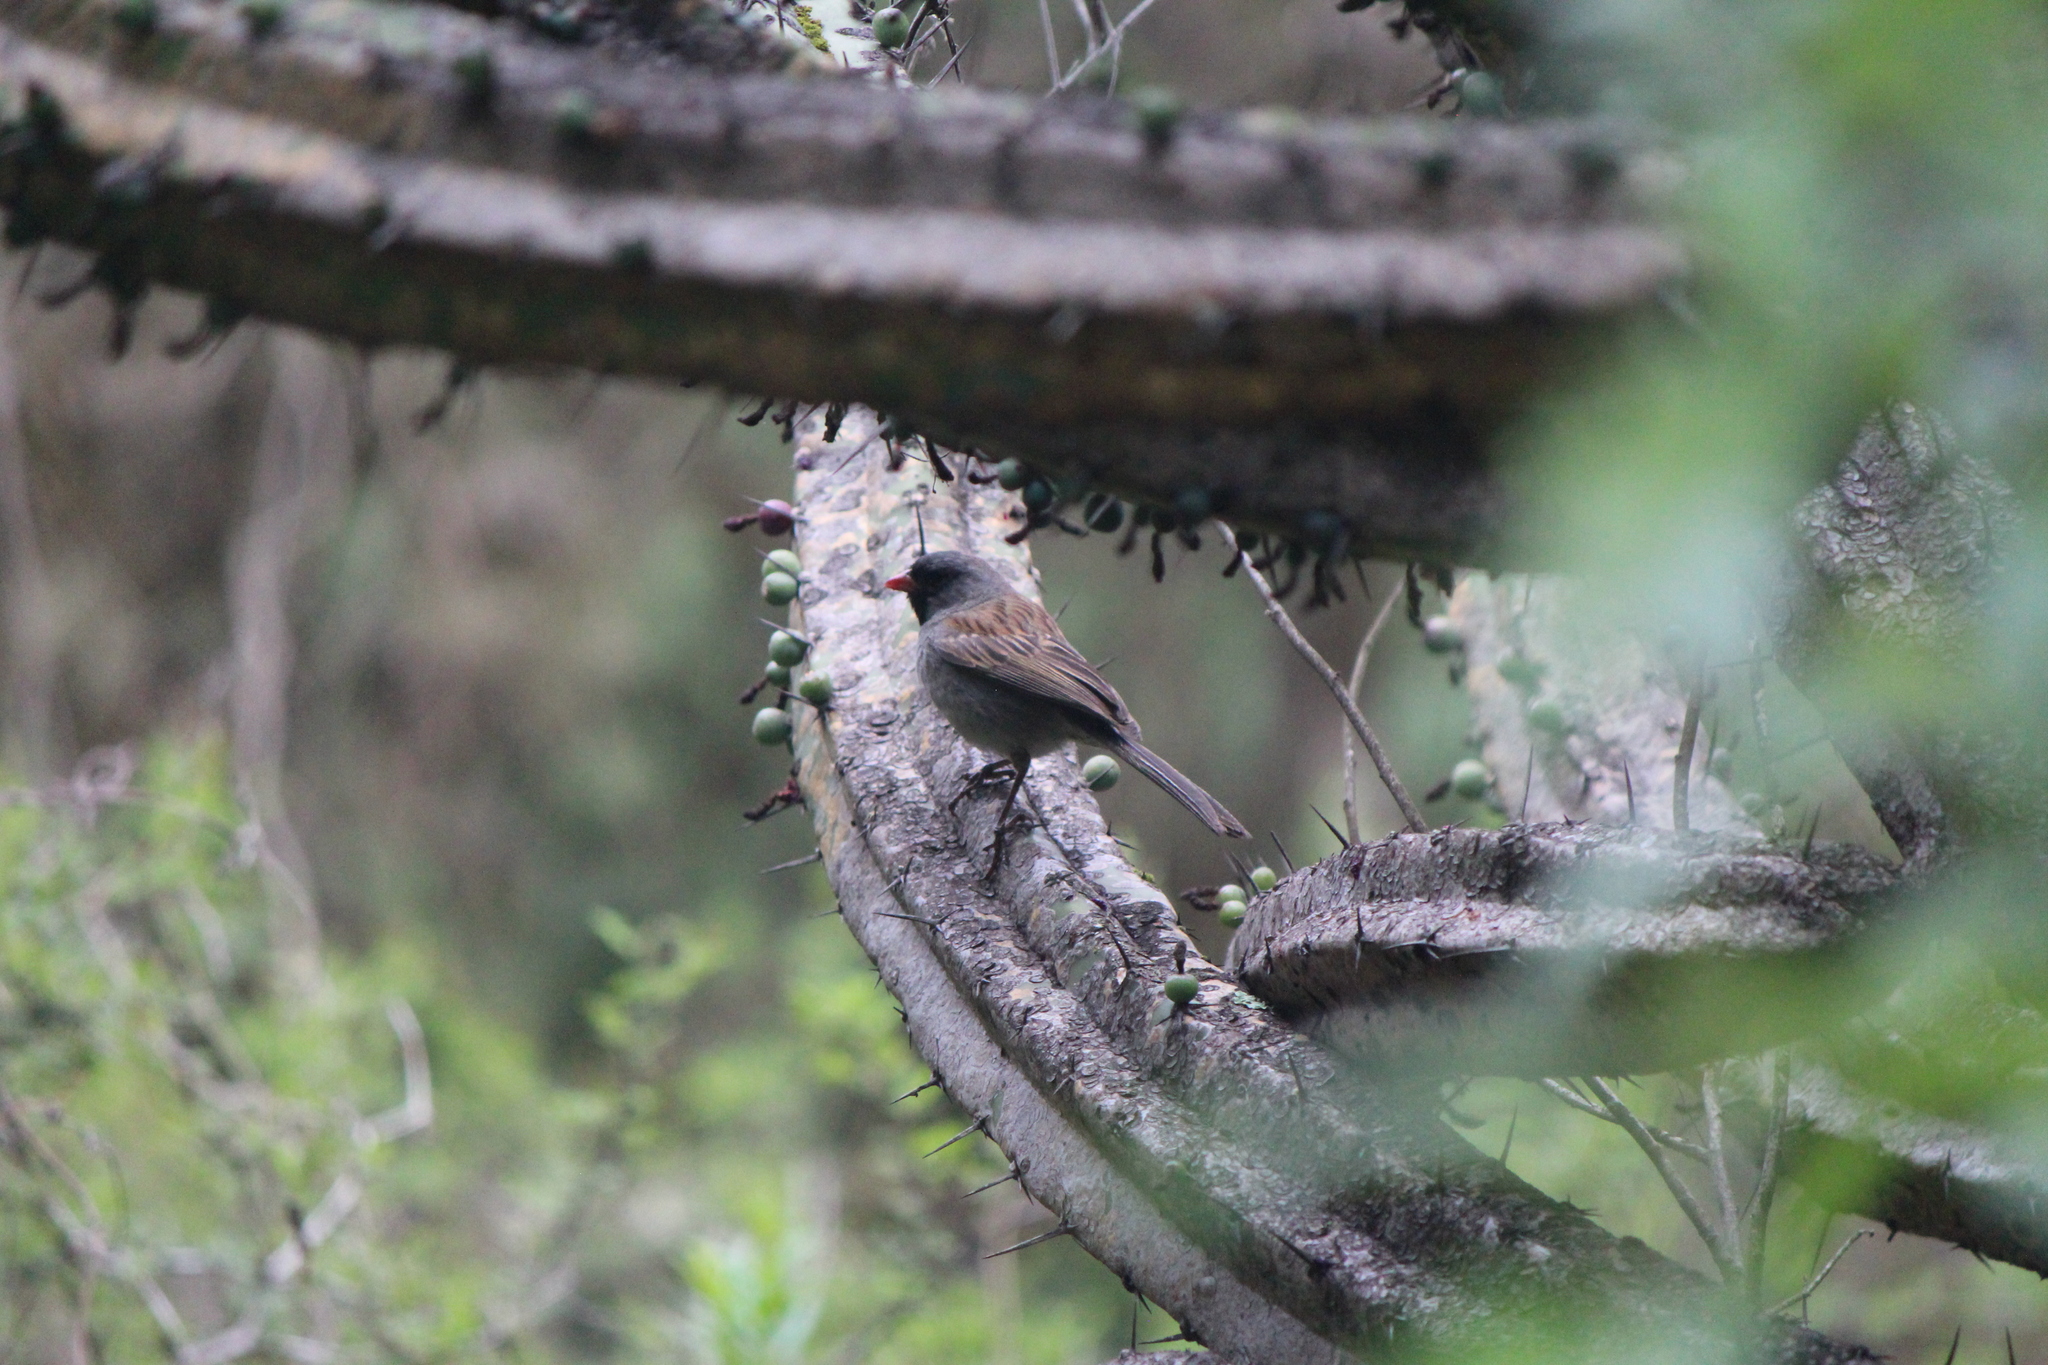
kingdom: Animalia
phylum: Chordata
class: Aves
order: Passeriformes
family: Passerellidae
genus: Spizella
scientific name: Spizella atrogularis
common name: Black-chinned sparrow
